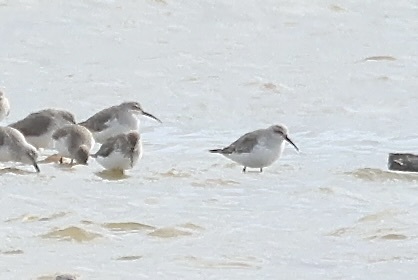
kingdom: Animalia
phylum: Chordata
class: Aves
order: Charadriiformes
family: Scolopacidae
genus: Calidris
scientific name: Calidris ferruginea
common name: Curlew sandpiper
